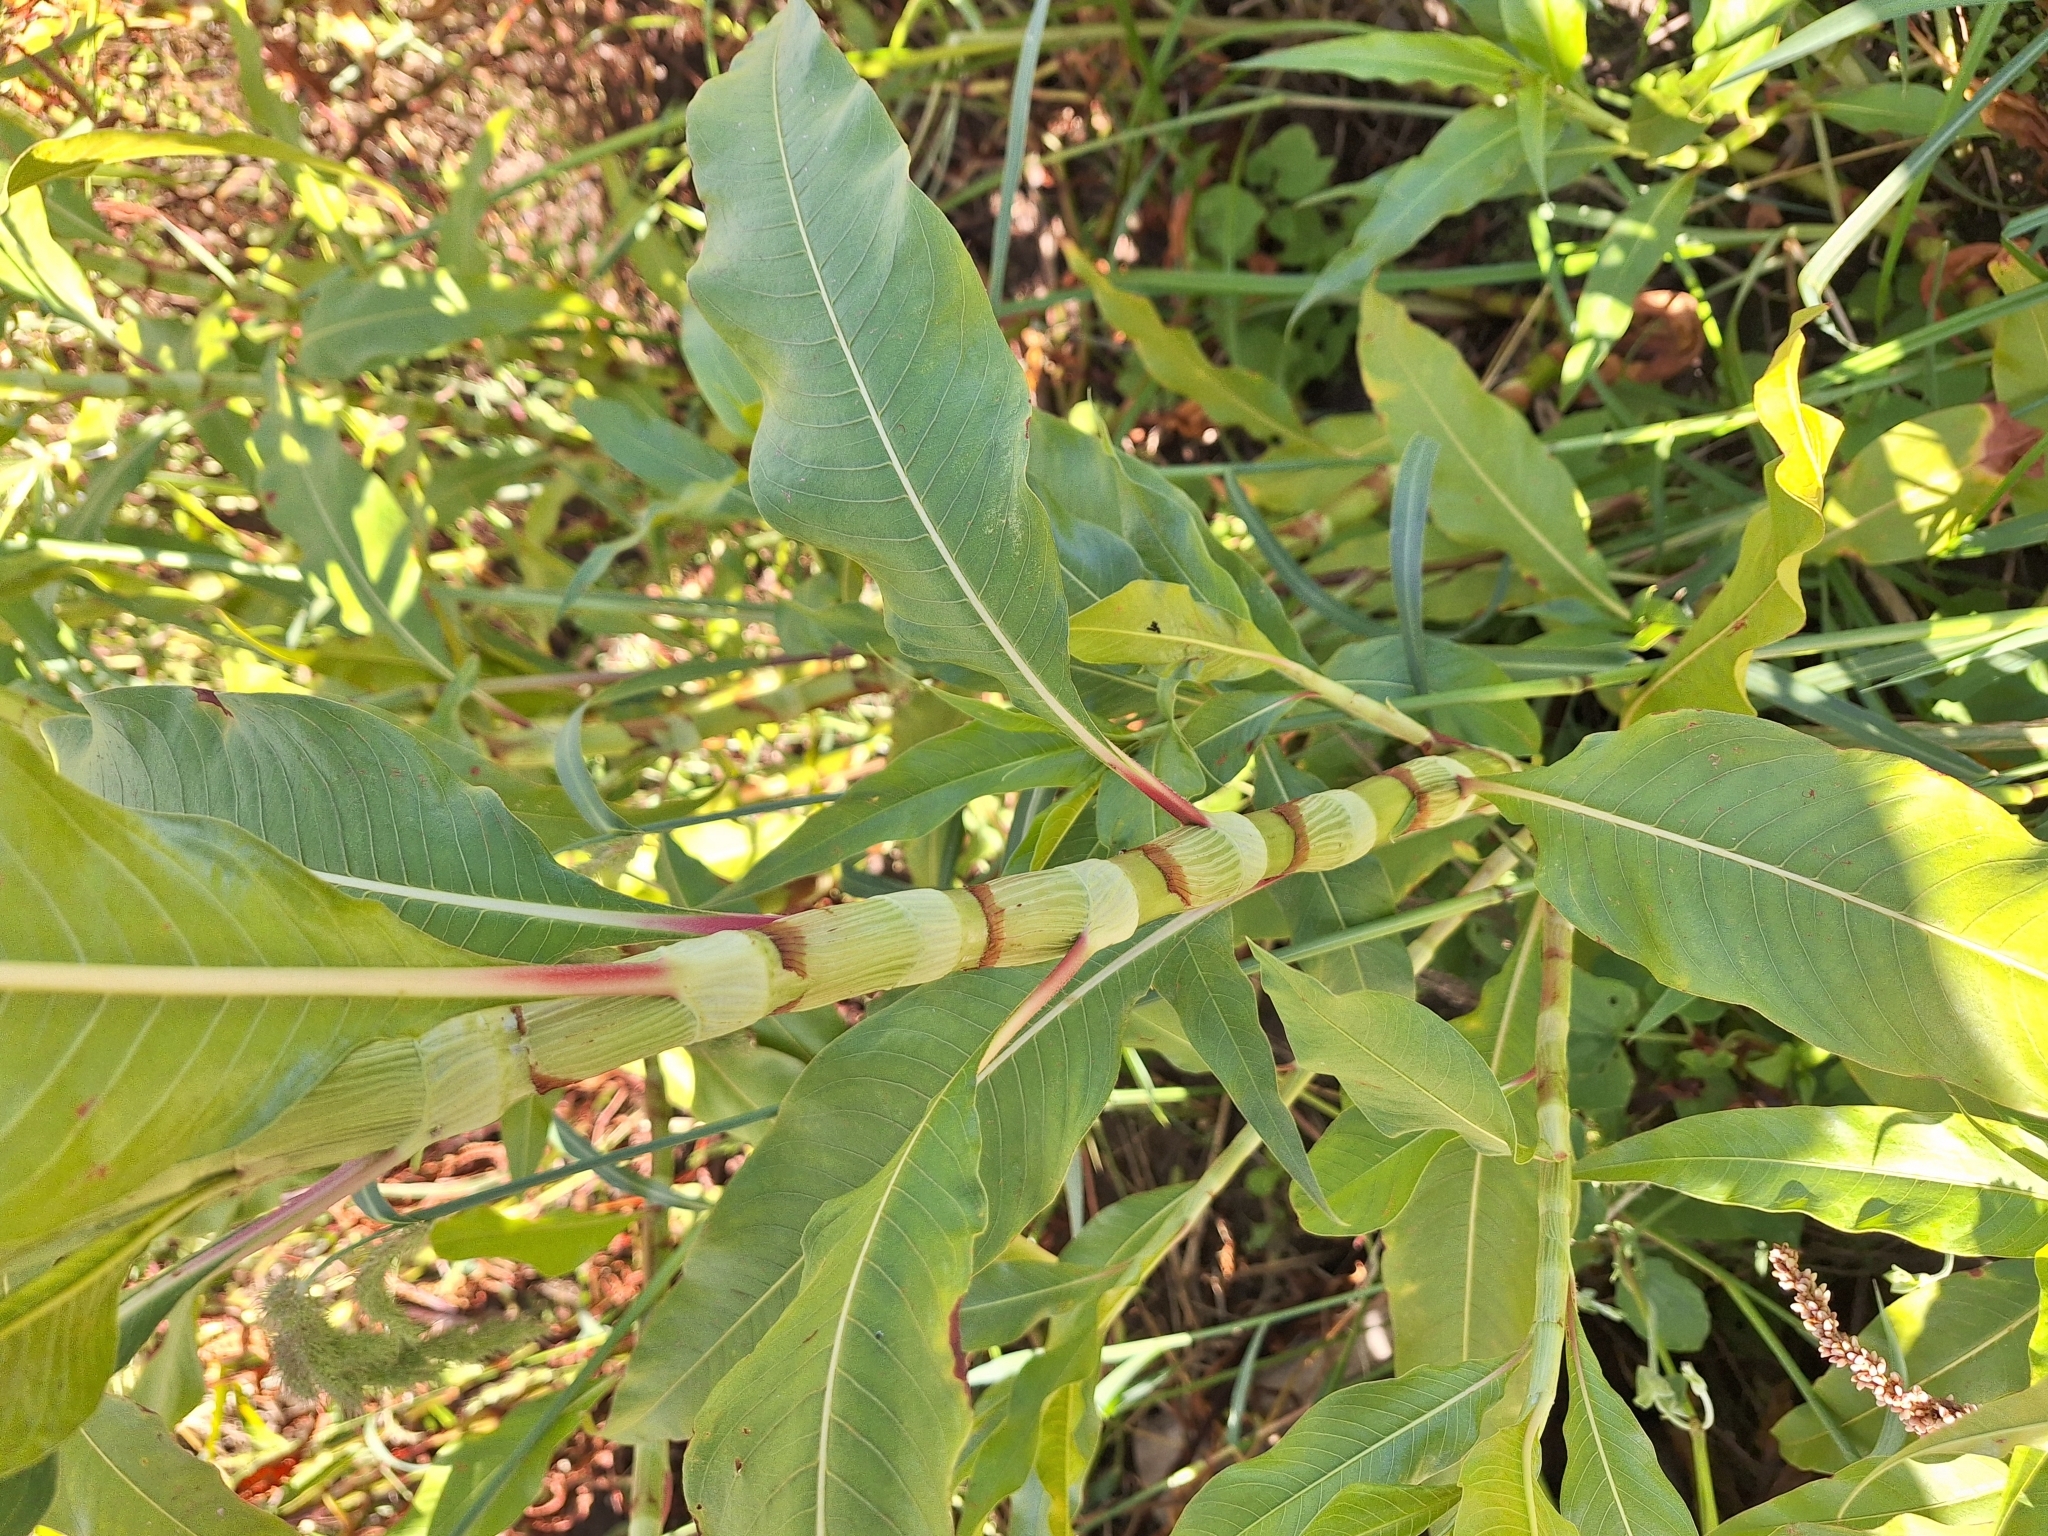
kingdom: Plantae
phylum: Tracheophyta
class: Magnoliopsida
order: Caryophyllales
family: Polygonaceae
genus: Persicaria
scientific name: Persicaria lapathifolia
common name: Curlytop knotweed
